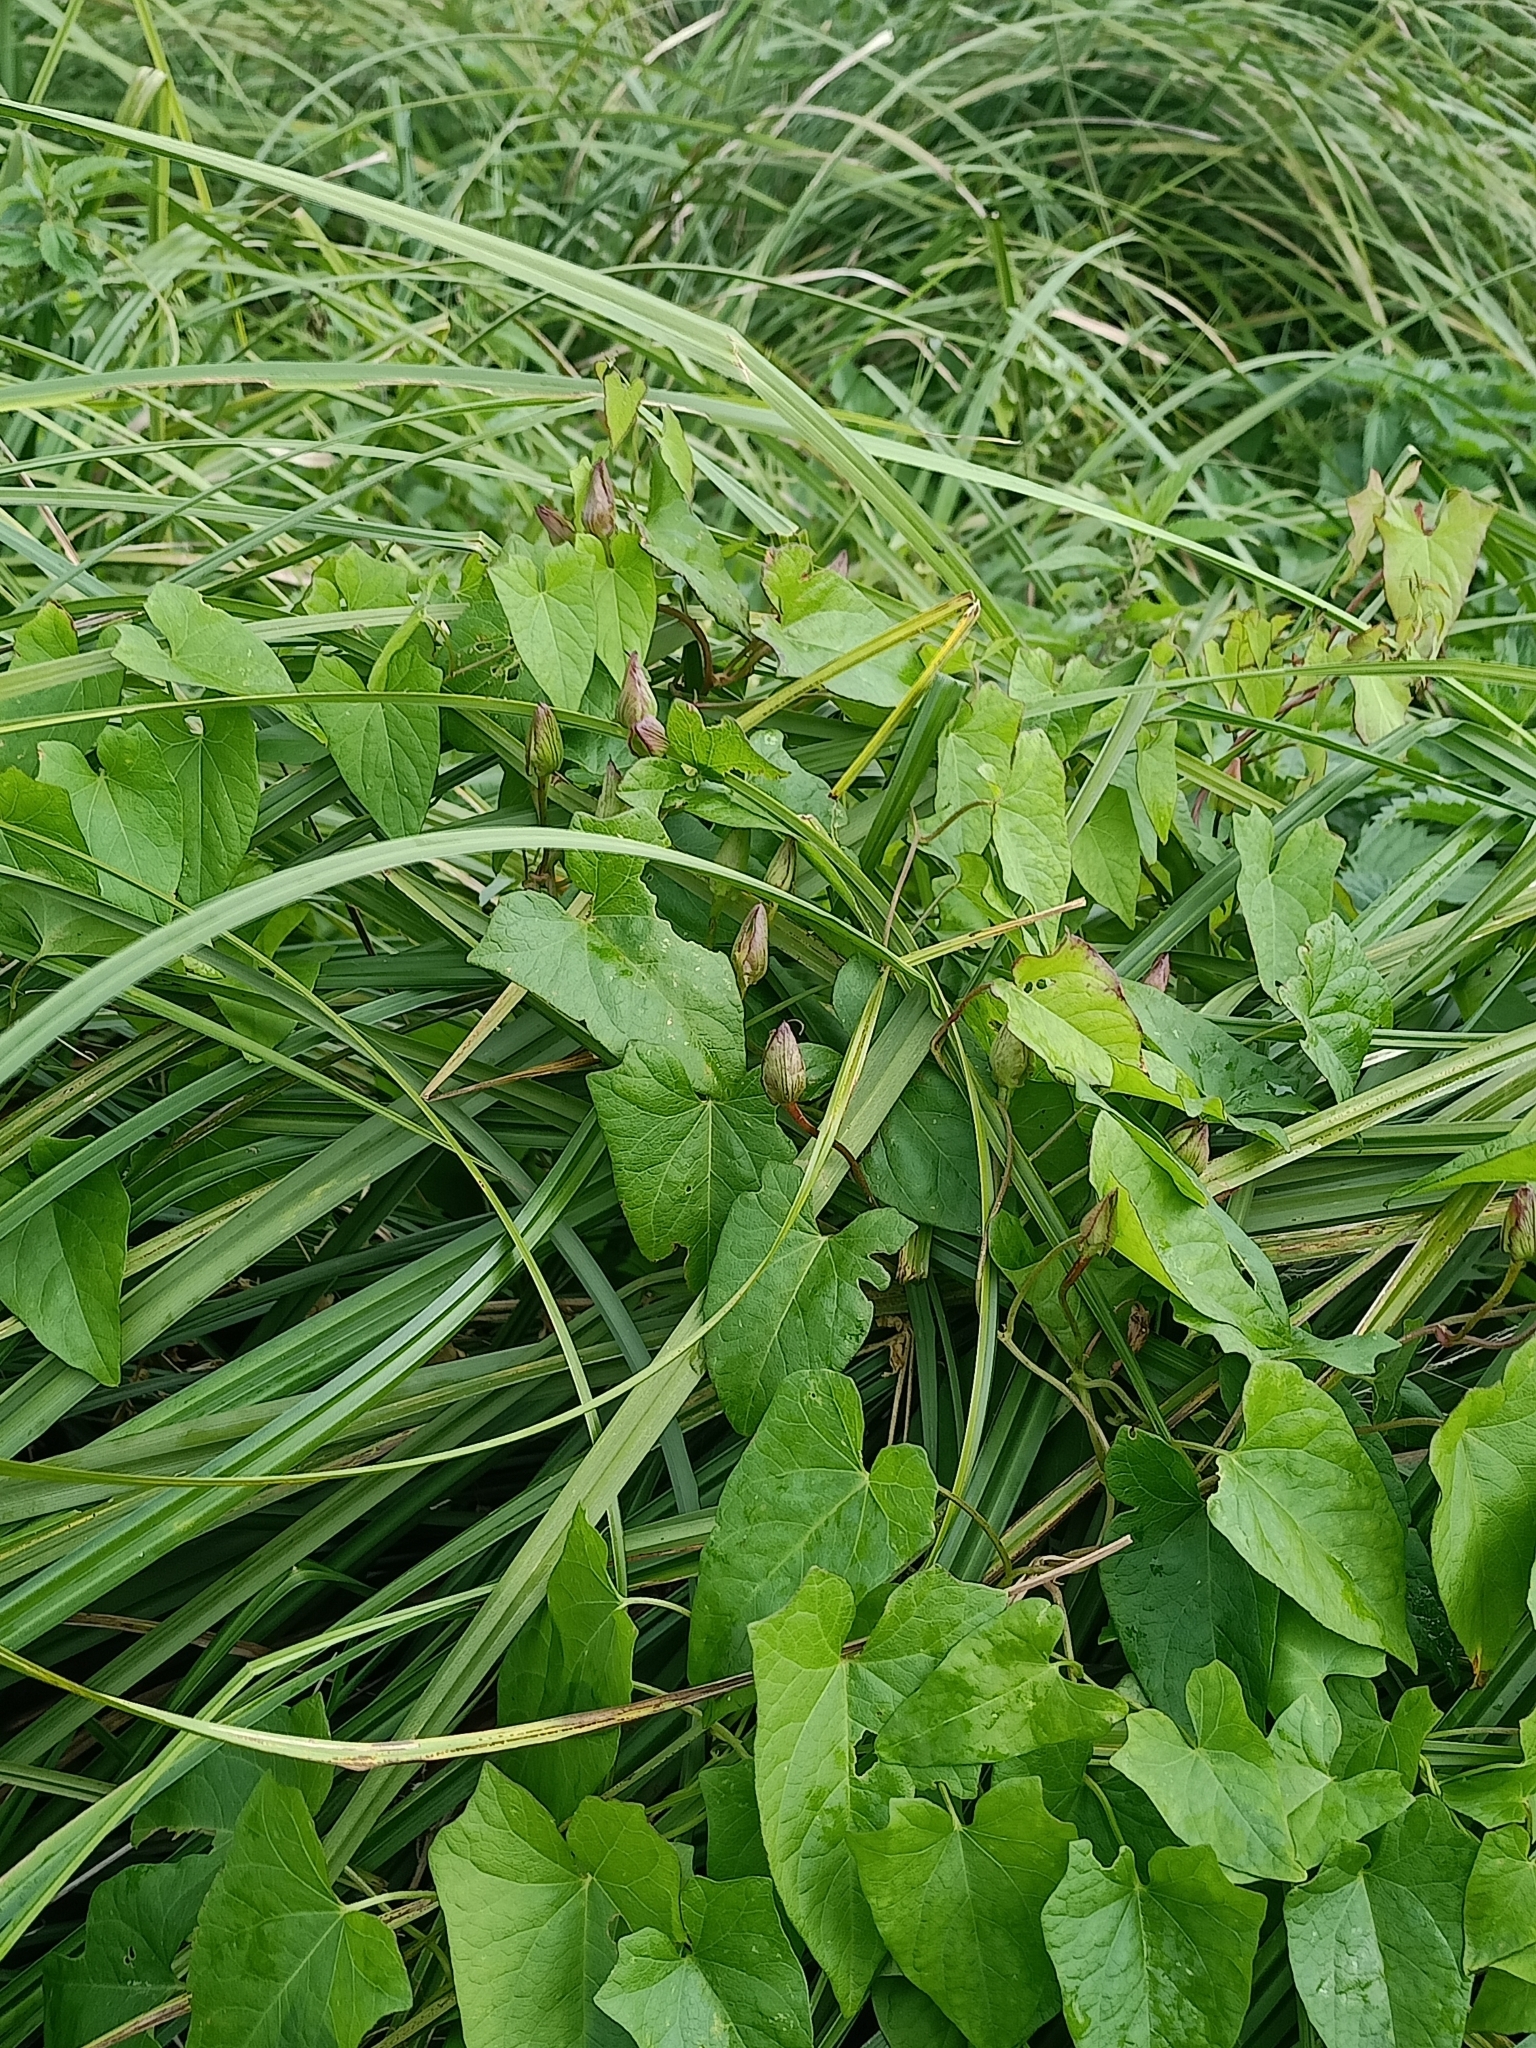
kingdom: Plantae
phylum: Tracheophyta
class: Magnoliopsida
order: Solanales
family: Convolvulaceae
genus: Calystegia
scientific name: Calystegia sepium
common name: Hedge bindweed
